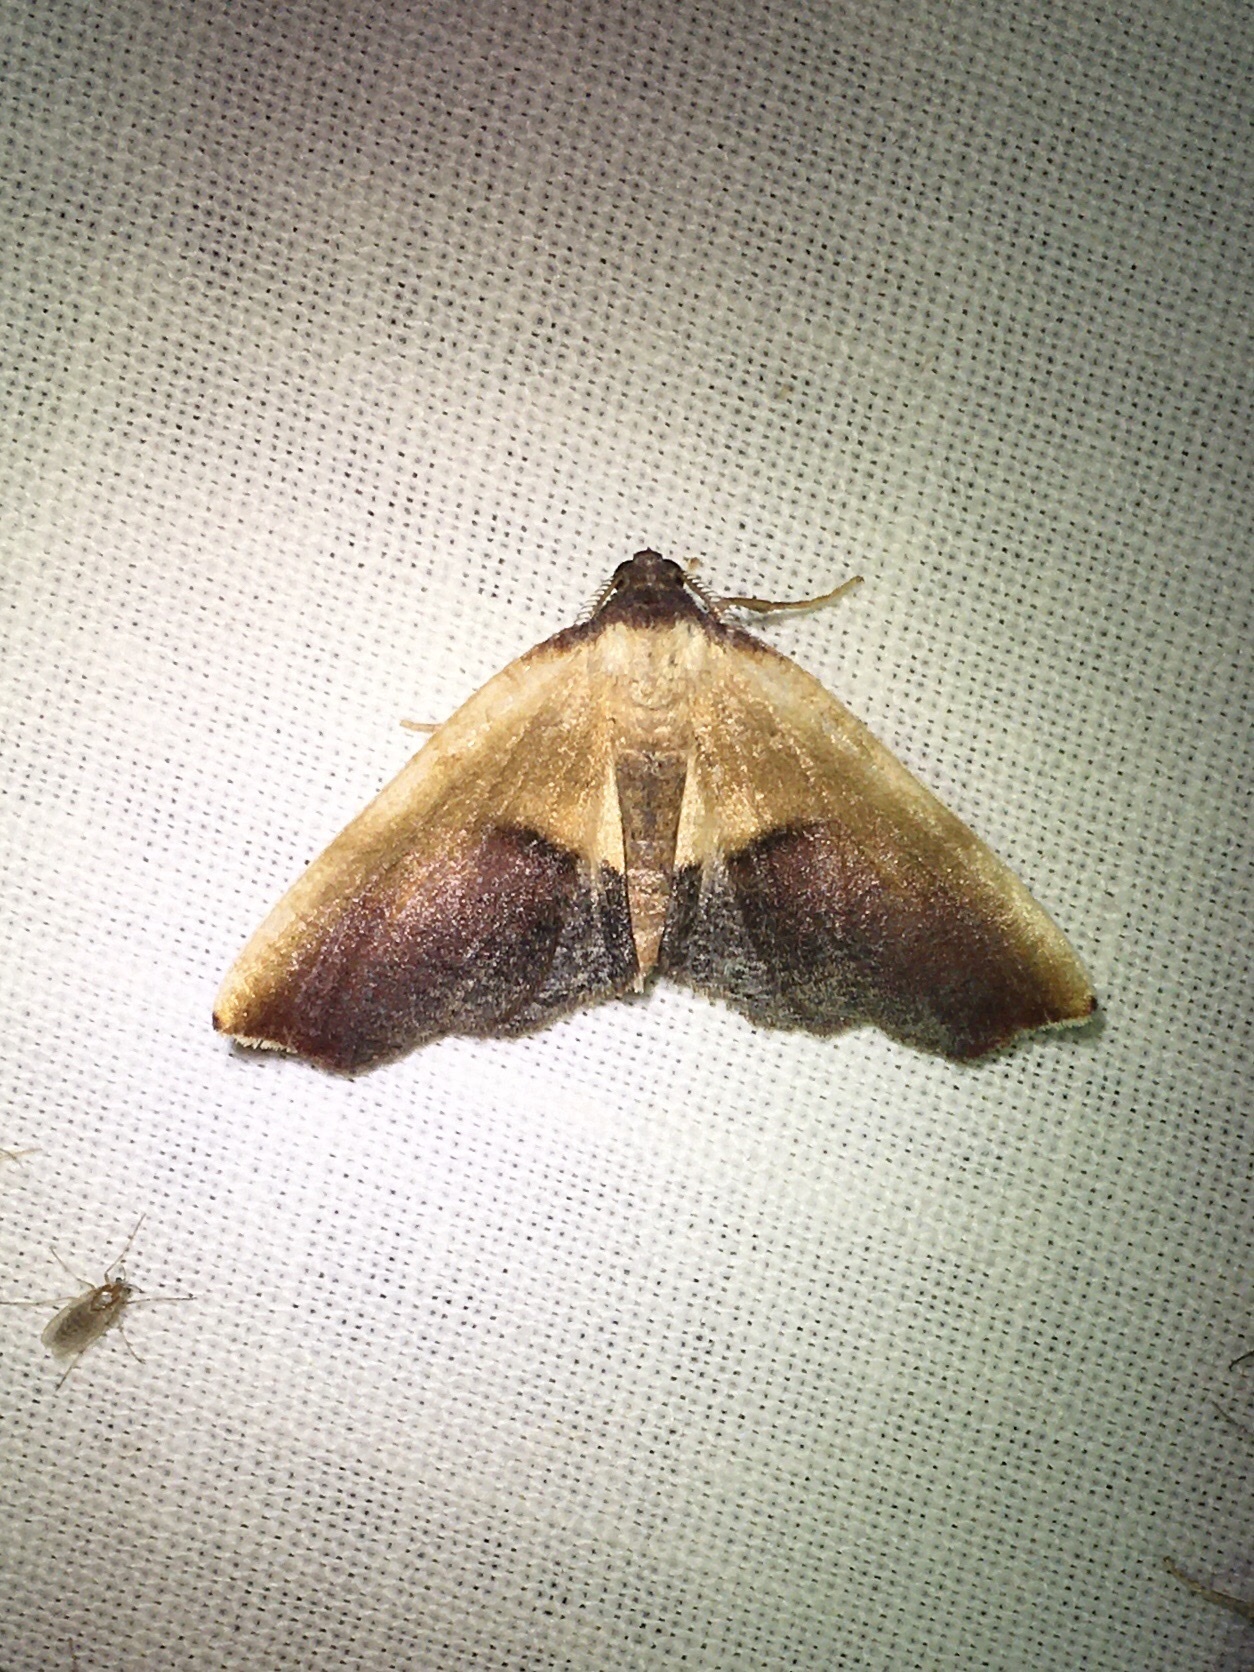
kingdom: Animalia
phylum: Arthropoda
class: Insecta
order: Lepidoptera
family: Geometridae
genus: Plagodis
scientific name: Plagodis kuetzingi
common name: Purple plagodis
